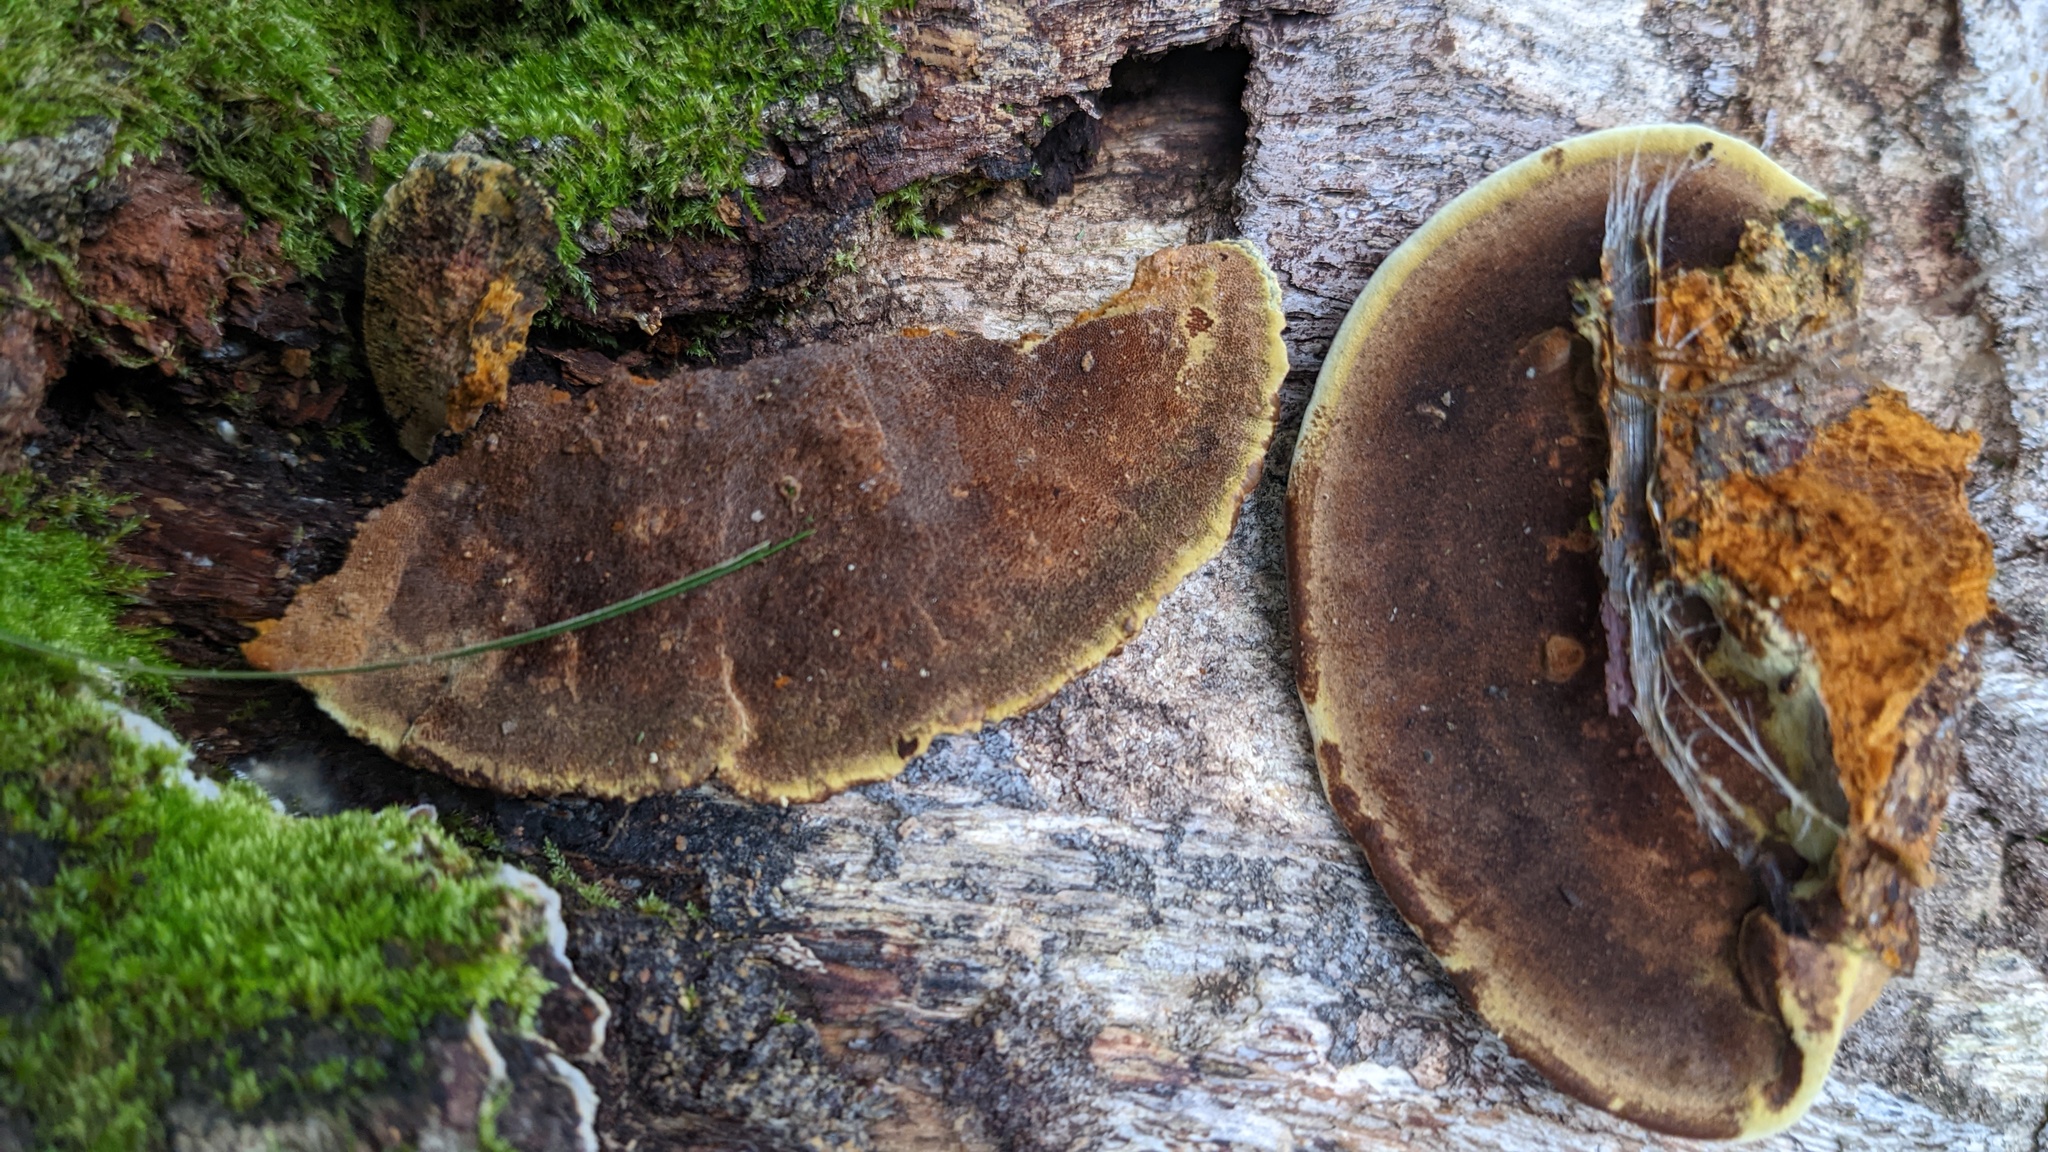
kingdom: Fungi
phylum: Basidiomycota
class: Agaricomycetes
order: Hymenochaetales
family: Hymenochaetaceae
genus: Phellinus
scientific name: Phellinus gilvus
